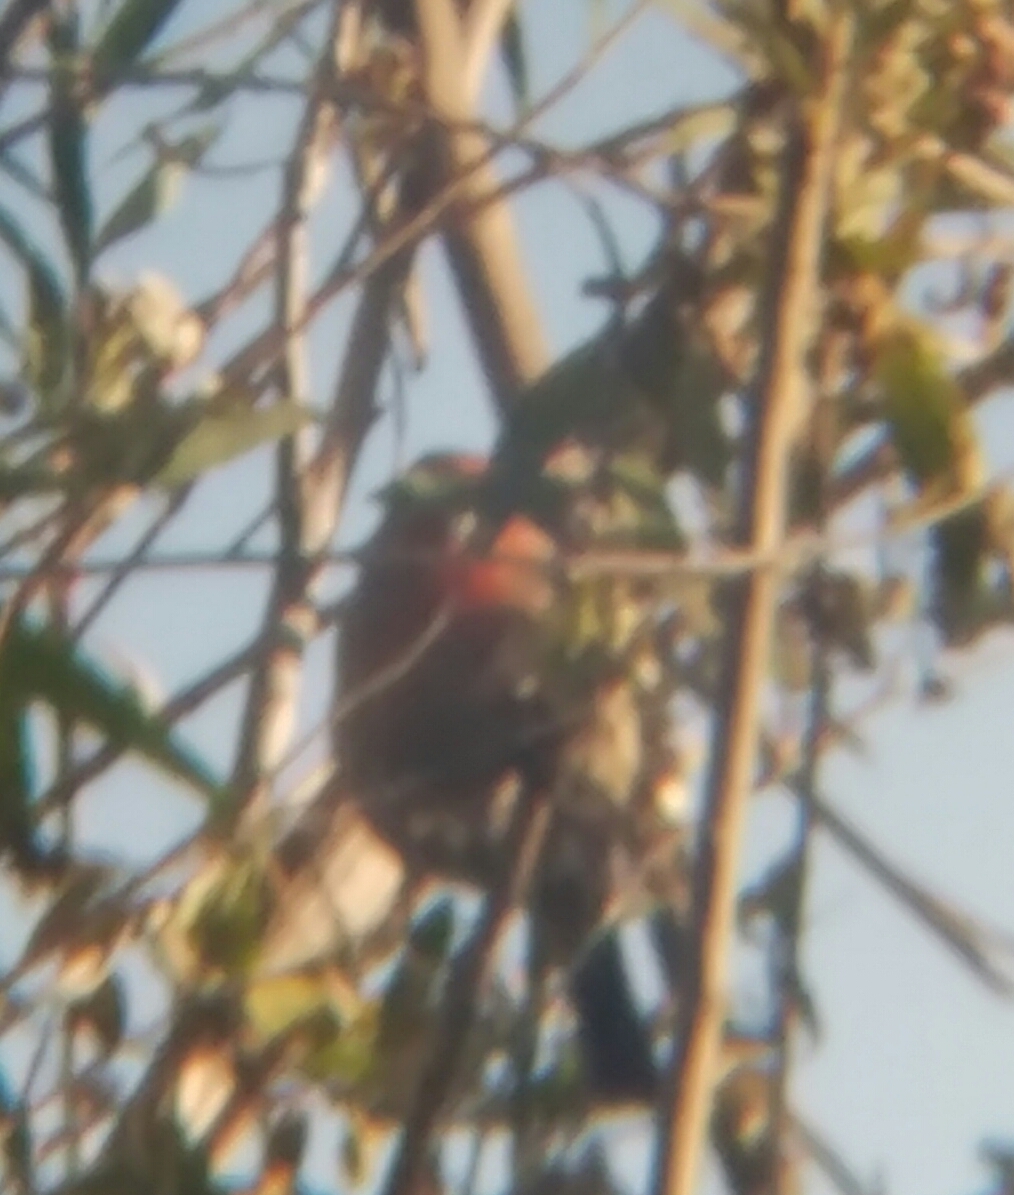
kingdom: Animalia
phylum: Chordata
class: Aves
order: Passeriformes
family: Fringillidae
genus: Haemorhous
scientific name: Haemorhous mexicanus
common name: House finch
